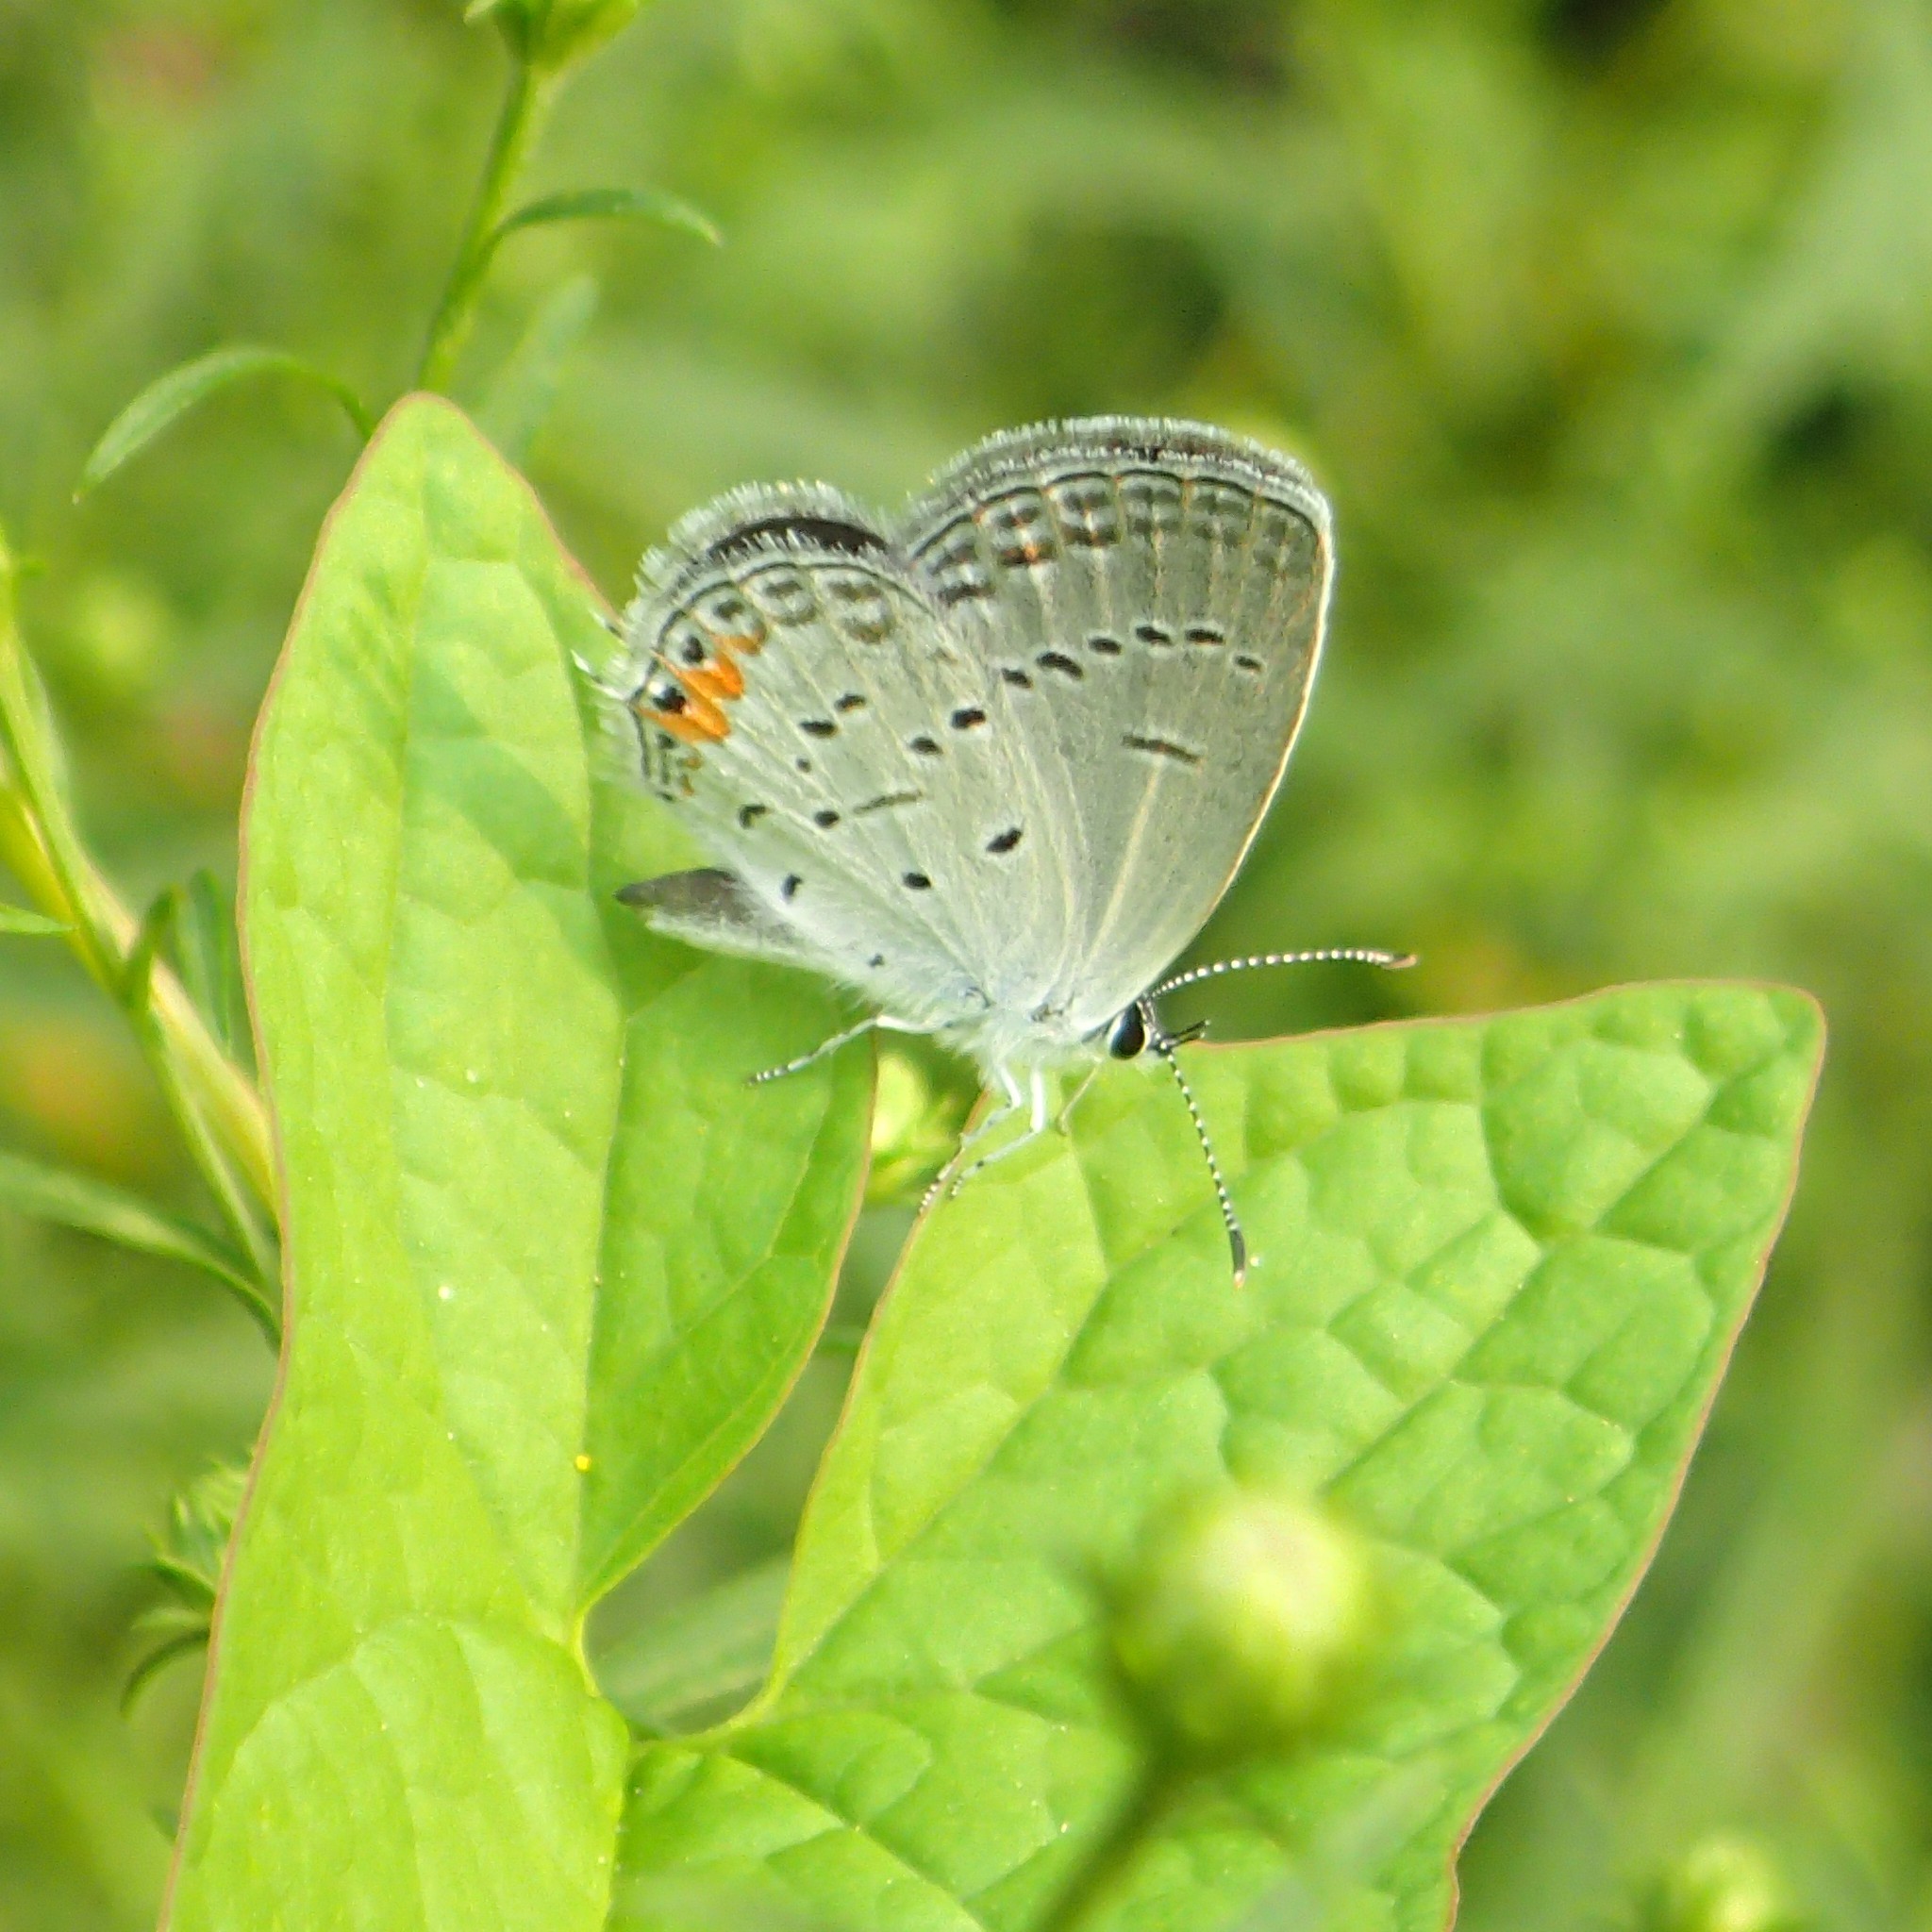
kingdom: Animalia
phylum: Arthropoda
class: Insecta
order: Lepidoptera
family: Lycaenidae
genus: Elkalyce
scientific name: Elkalyce comyntas
